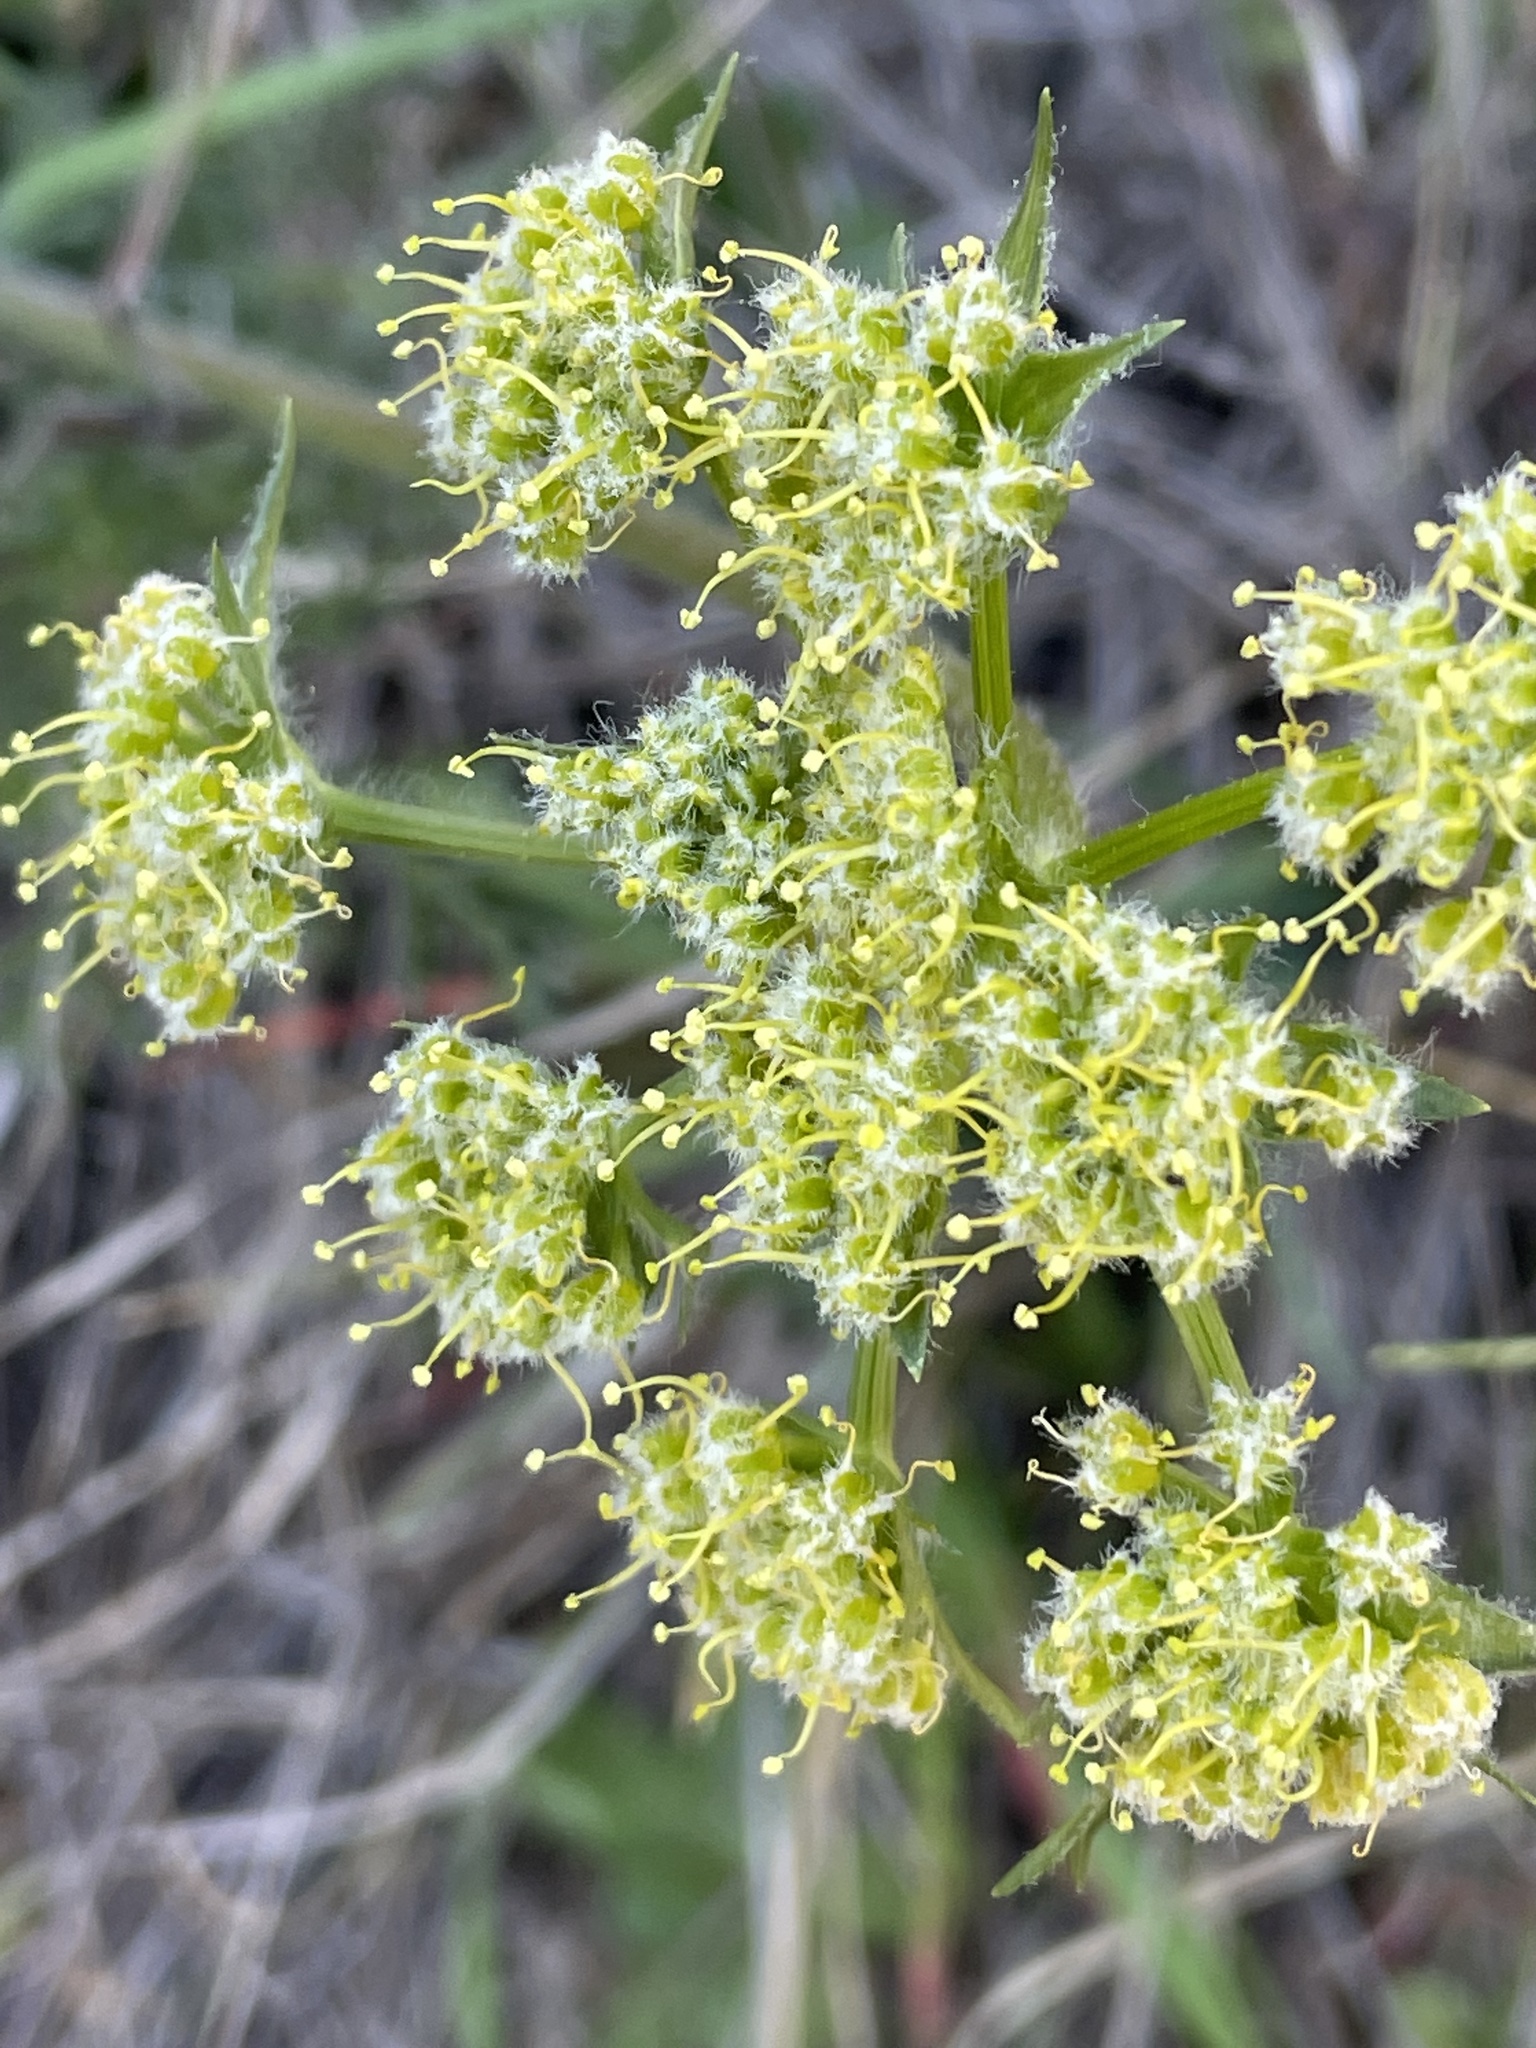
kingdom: Plantae
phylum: Tracheophyta
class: Magnoliopsida
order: Apiales
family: Apiaceae
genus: Lomatium
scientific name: Lomatium dasycarpum
